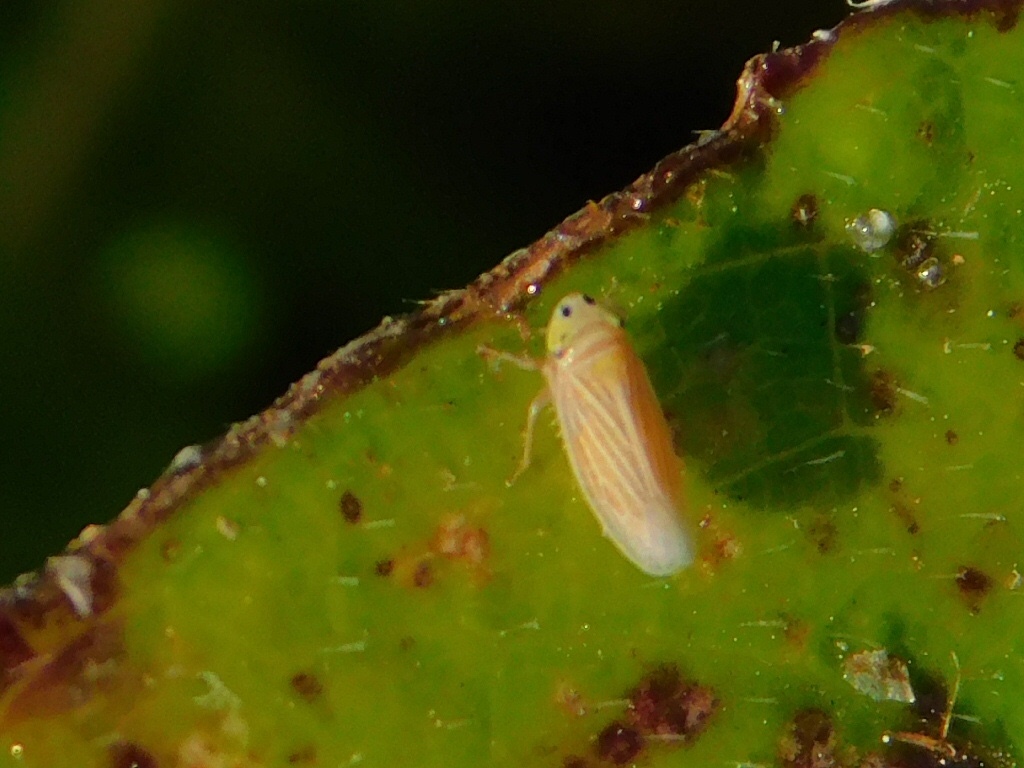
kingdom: Animalia
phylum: Arthropoda
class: Insecta
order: Hemiptera
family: Cicadellidae
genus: Graminella
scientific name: Graminella villicus
